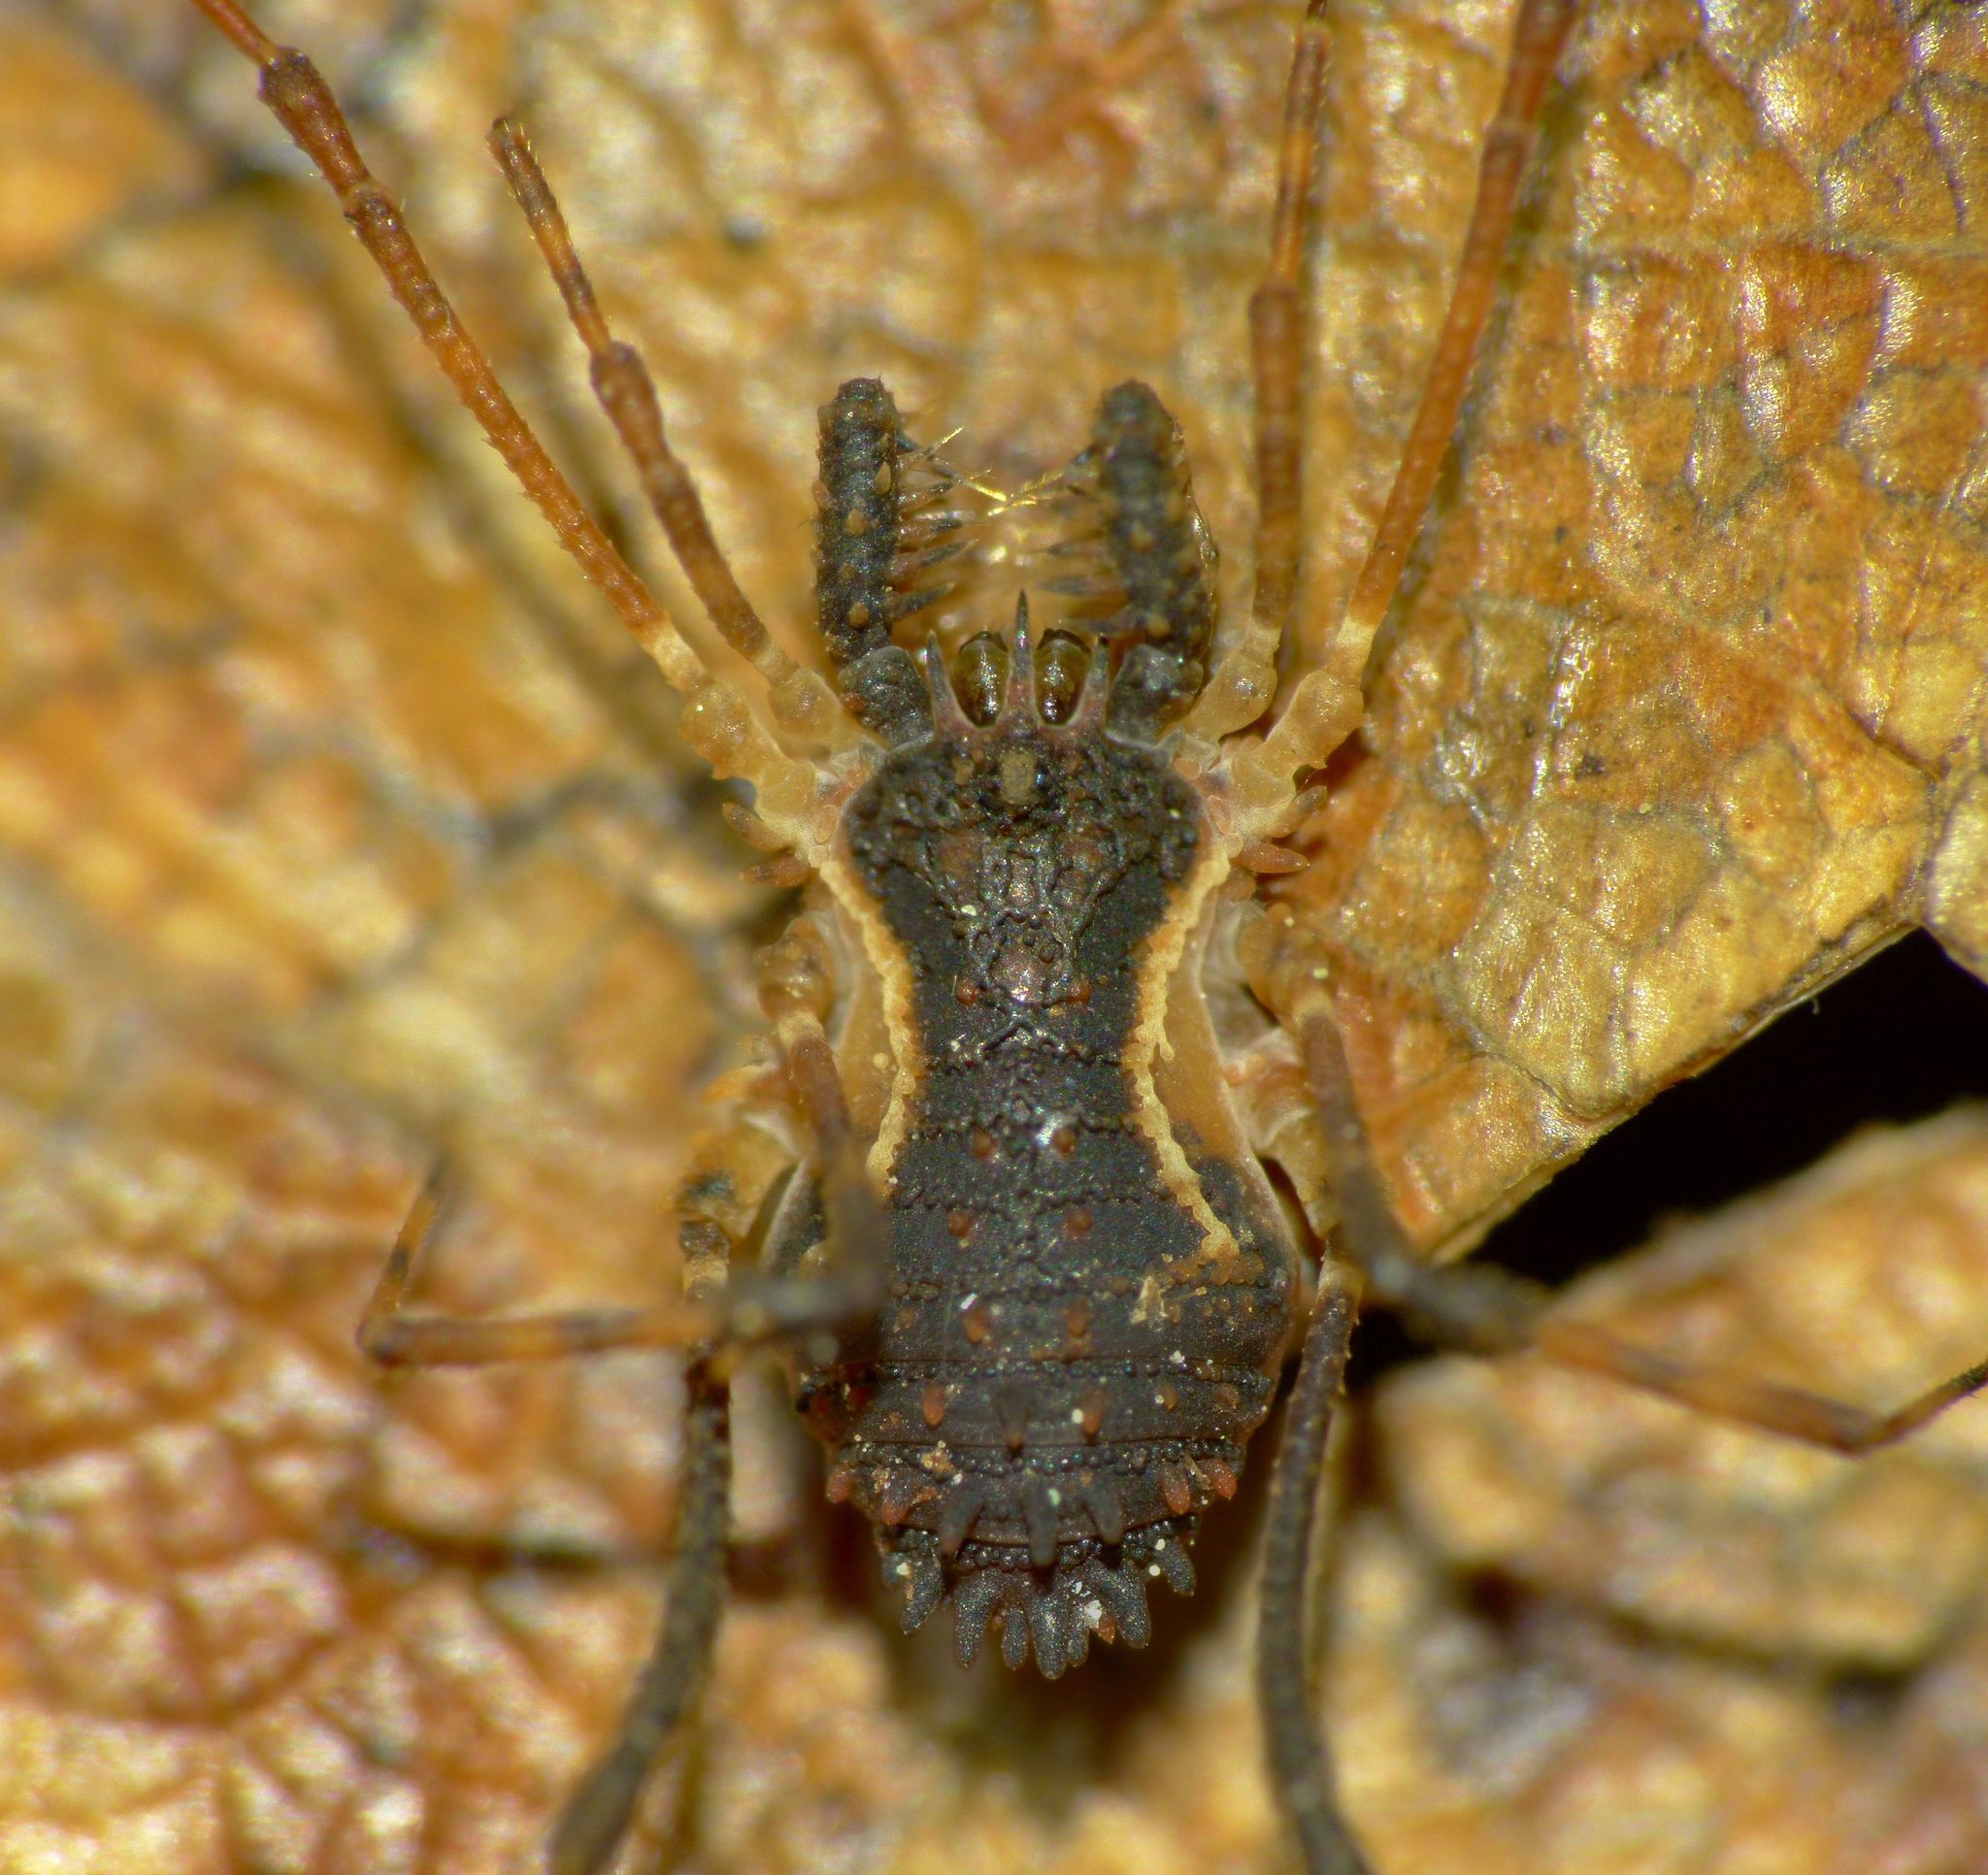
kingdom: Animalia
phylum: Arthropoda
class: Arachnida
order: Opiliones
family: Triaenonychidae
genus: Algidia
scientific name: Algidia marplesi
